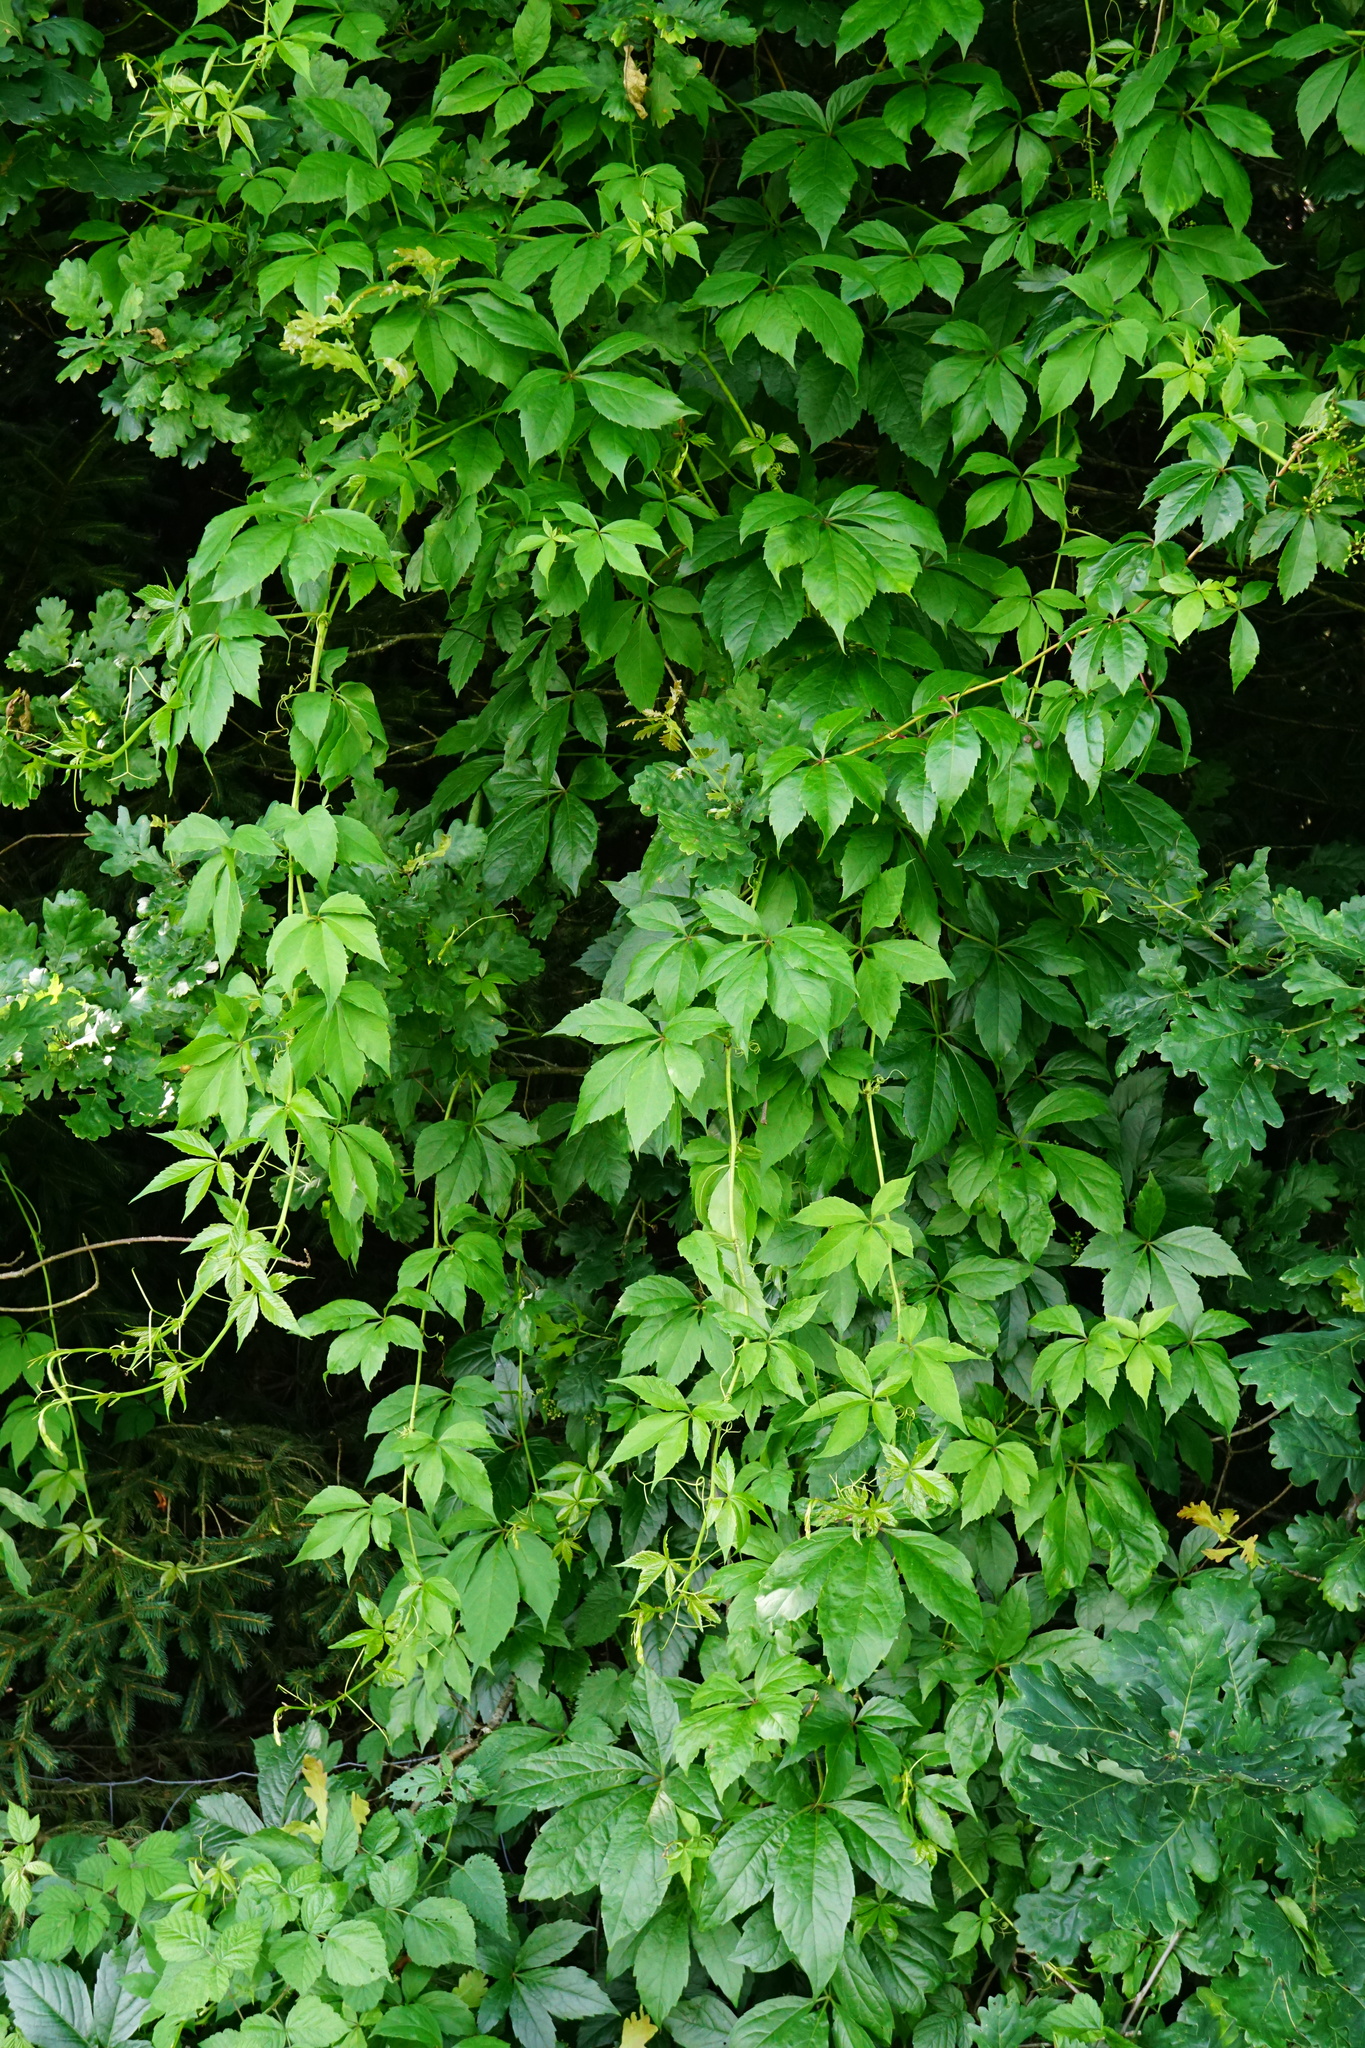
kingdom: Plantae
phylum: Tracheophyta
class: Magnoliopsida
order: Vitales
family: Vitaceae
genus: Parthenocissus
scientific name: Parthenocissus inserta
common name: False virginia-creeper
